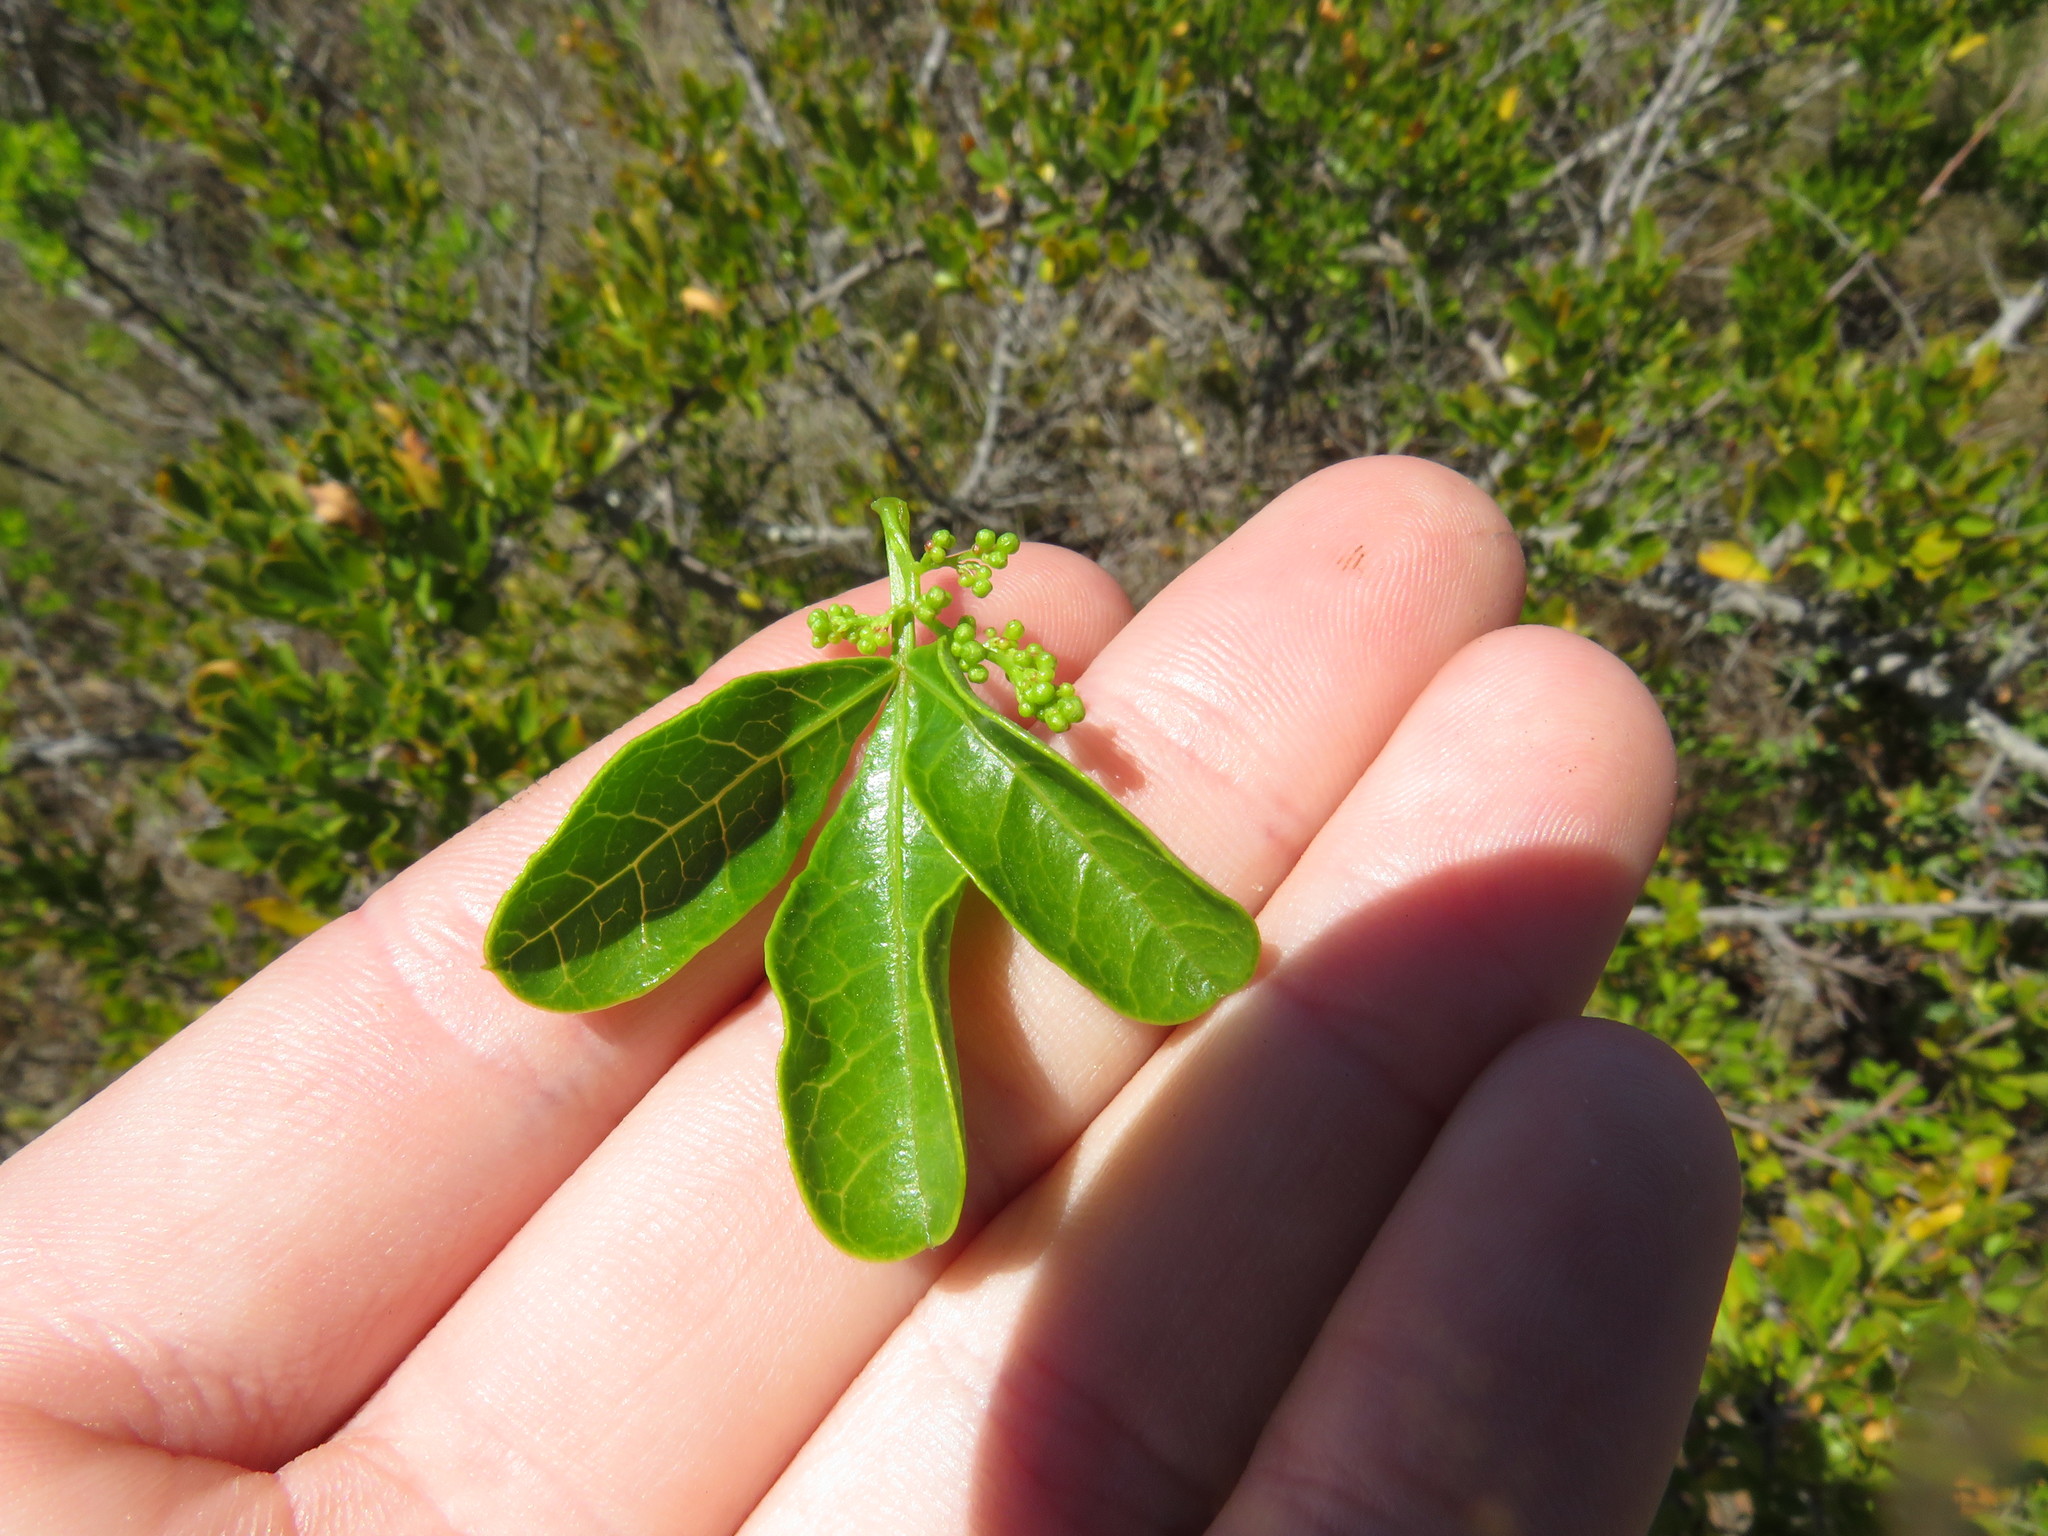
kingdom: Plantae
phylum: Tracheophyta
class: Magnoliopsida
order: Sapindales
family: Anacardiaceae
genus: Searsia
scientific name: Searsia laevigata
